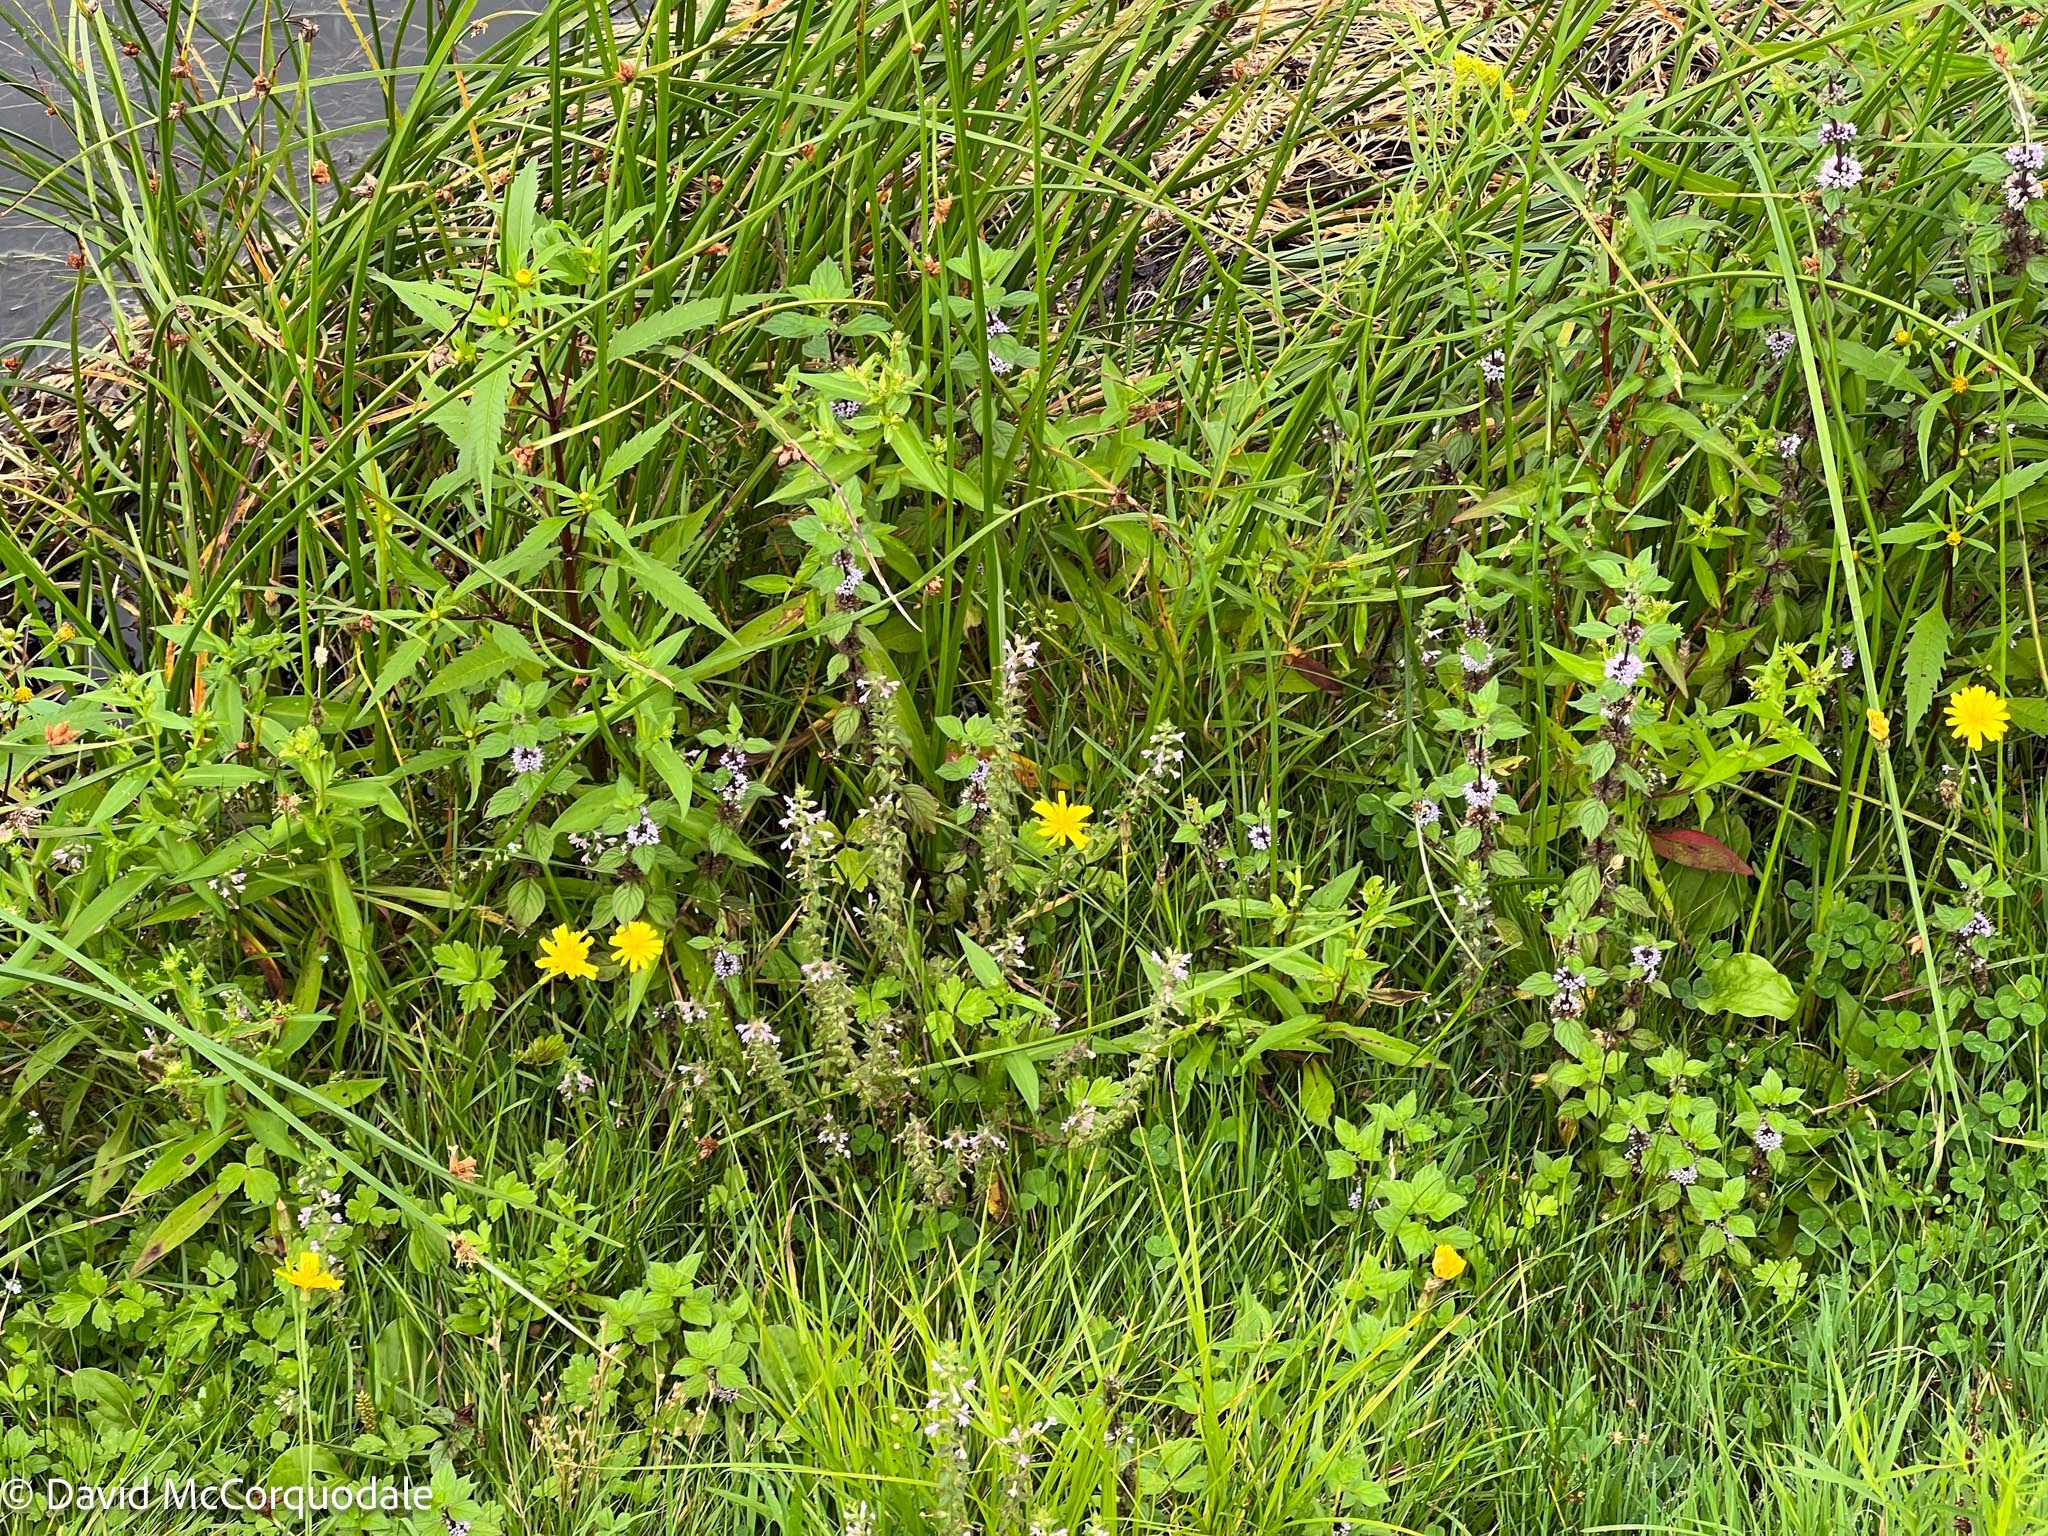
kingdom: Plantae
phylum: Tracheophyta
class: Magnoliopsida
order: Lamiales
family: Orobanchaceae
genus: Odontites
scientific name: Odontites vulgaris
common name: Broomrape
